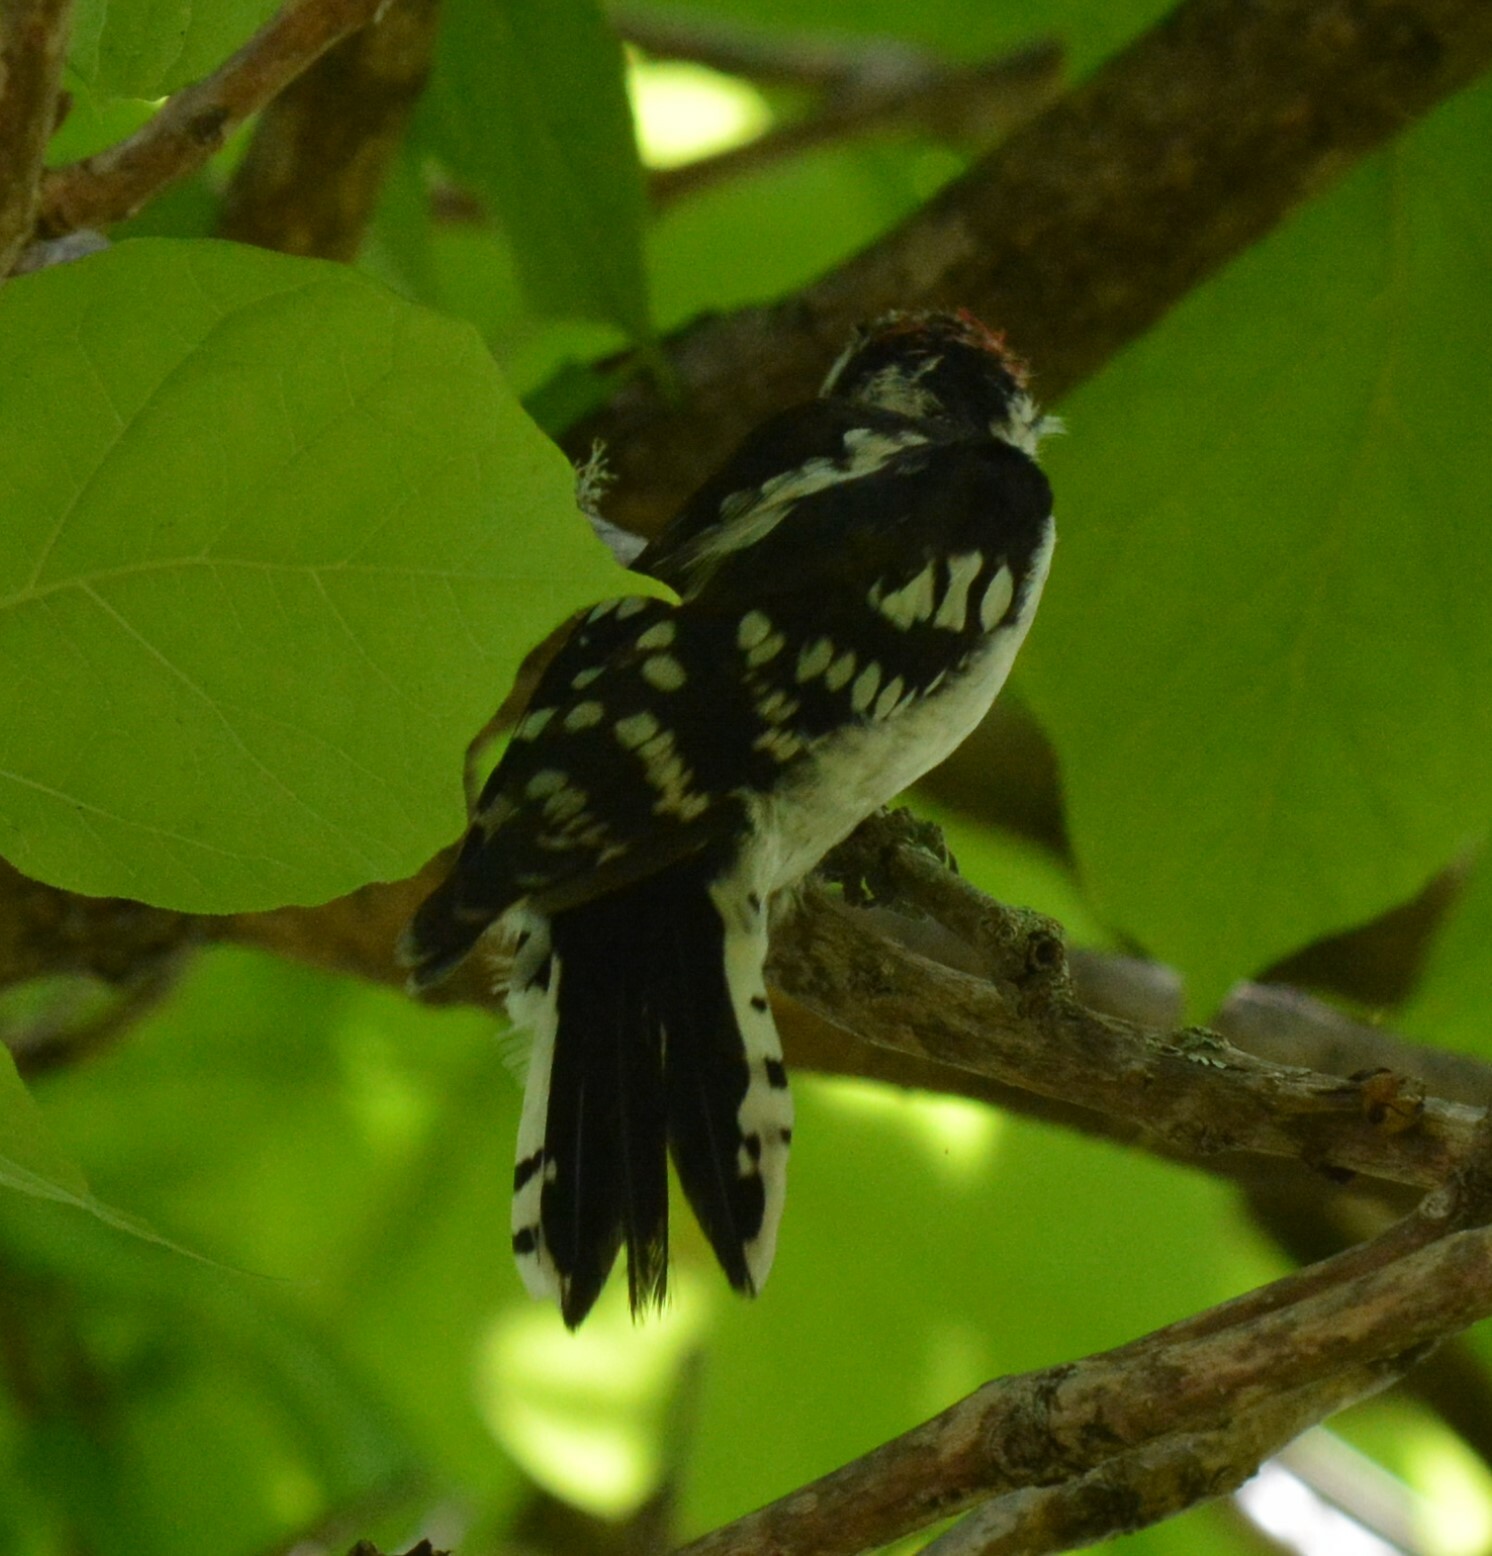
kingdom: Animalia
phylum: Chordata
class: Aves
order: Piciformes
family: Picidae
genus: Dryobates
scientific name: Dryobates pubescens
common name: Downy woodpecker
